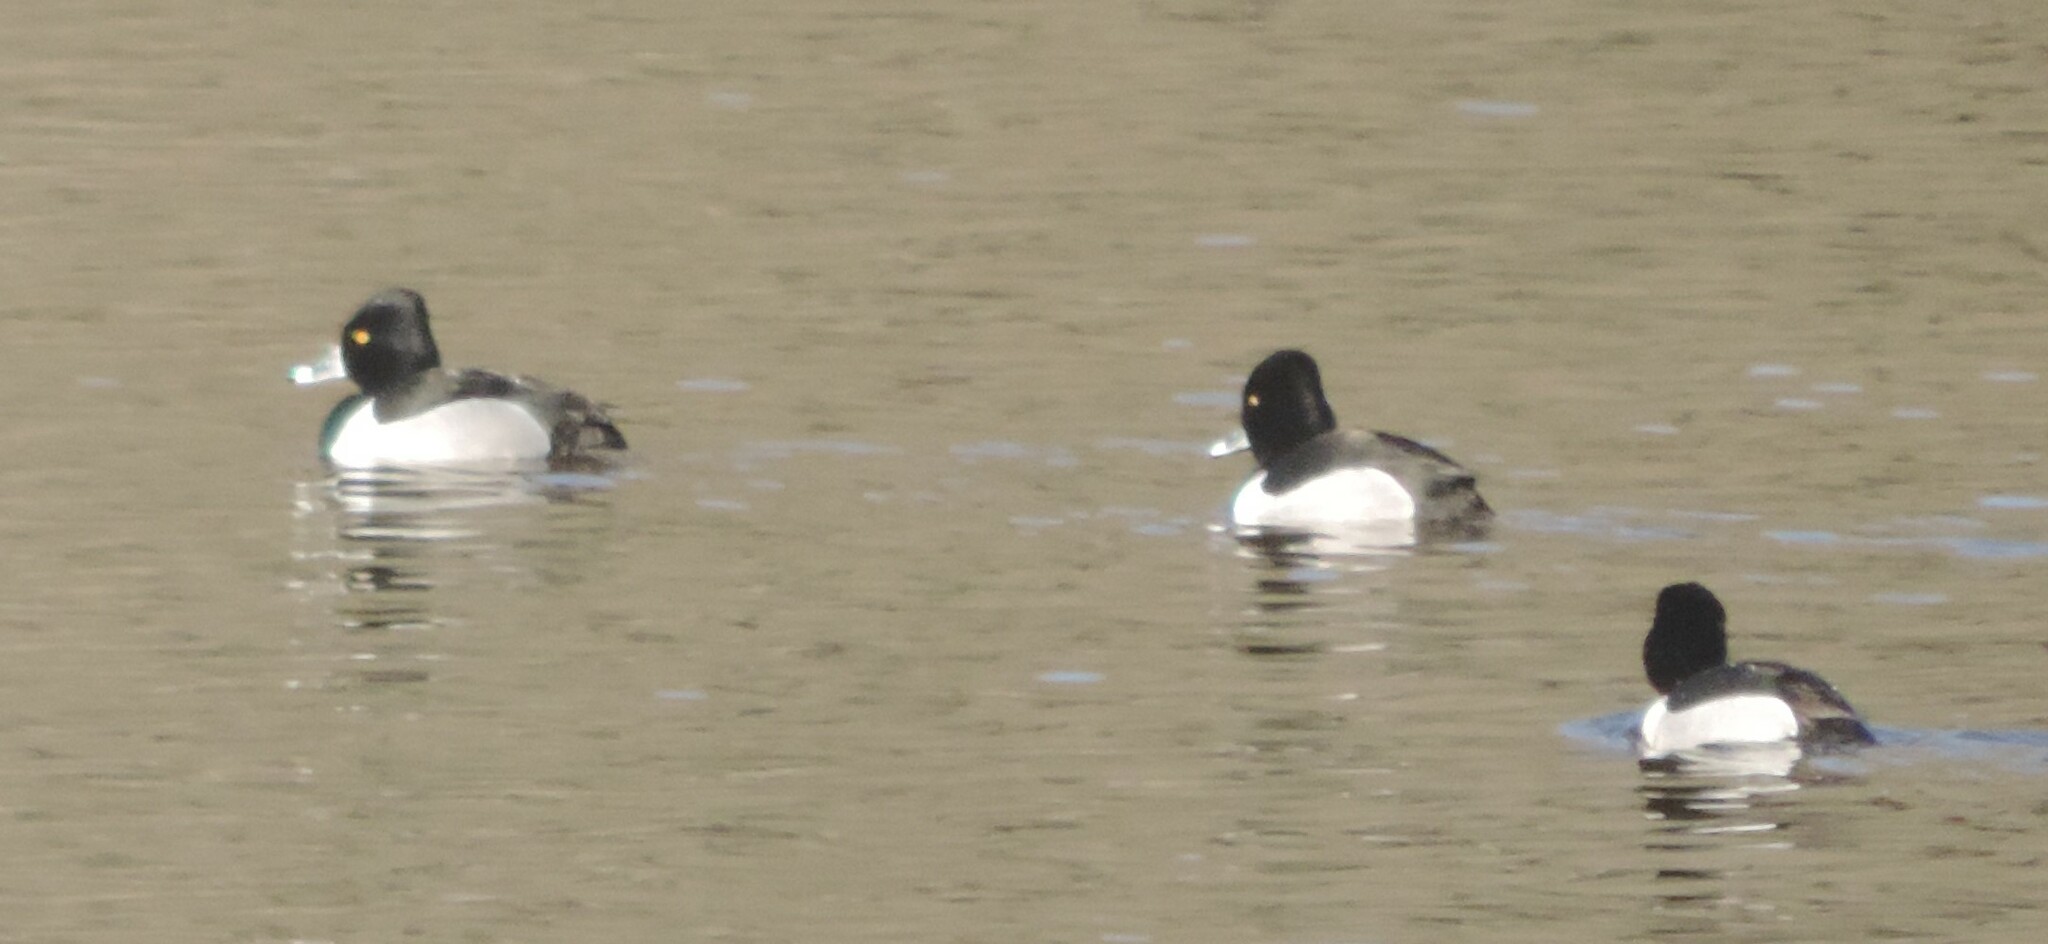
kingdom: Animalia
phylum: Chordata
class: Aves
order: Anseriformes
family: Anatidae
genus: Aythya
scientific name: Aythya collaris
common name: Ring-necked duck
